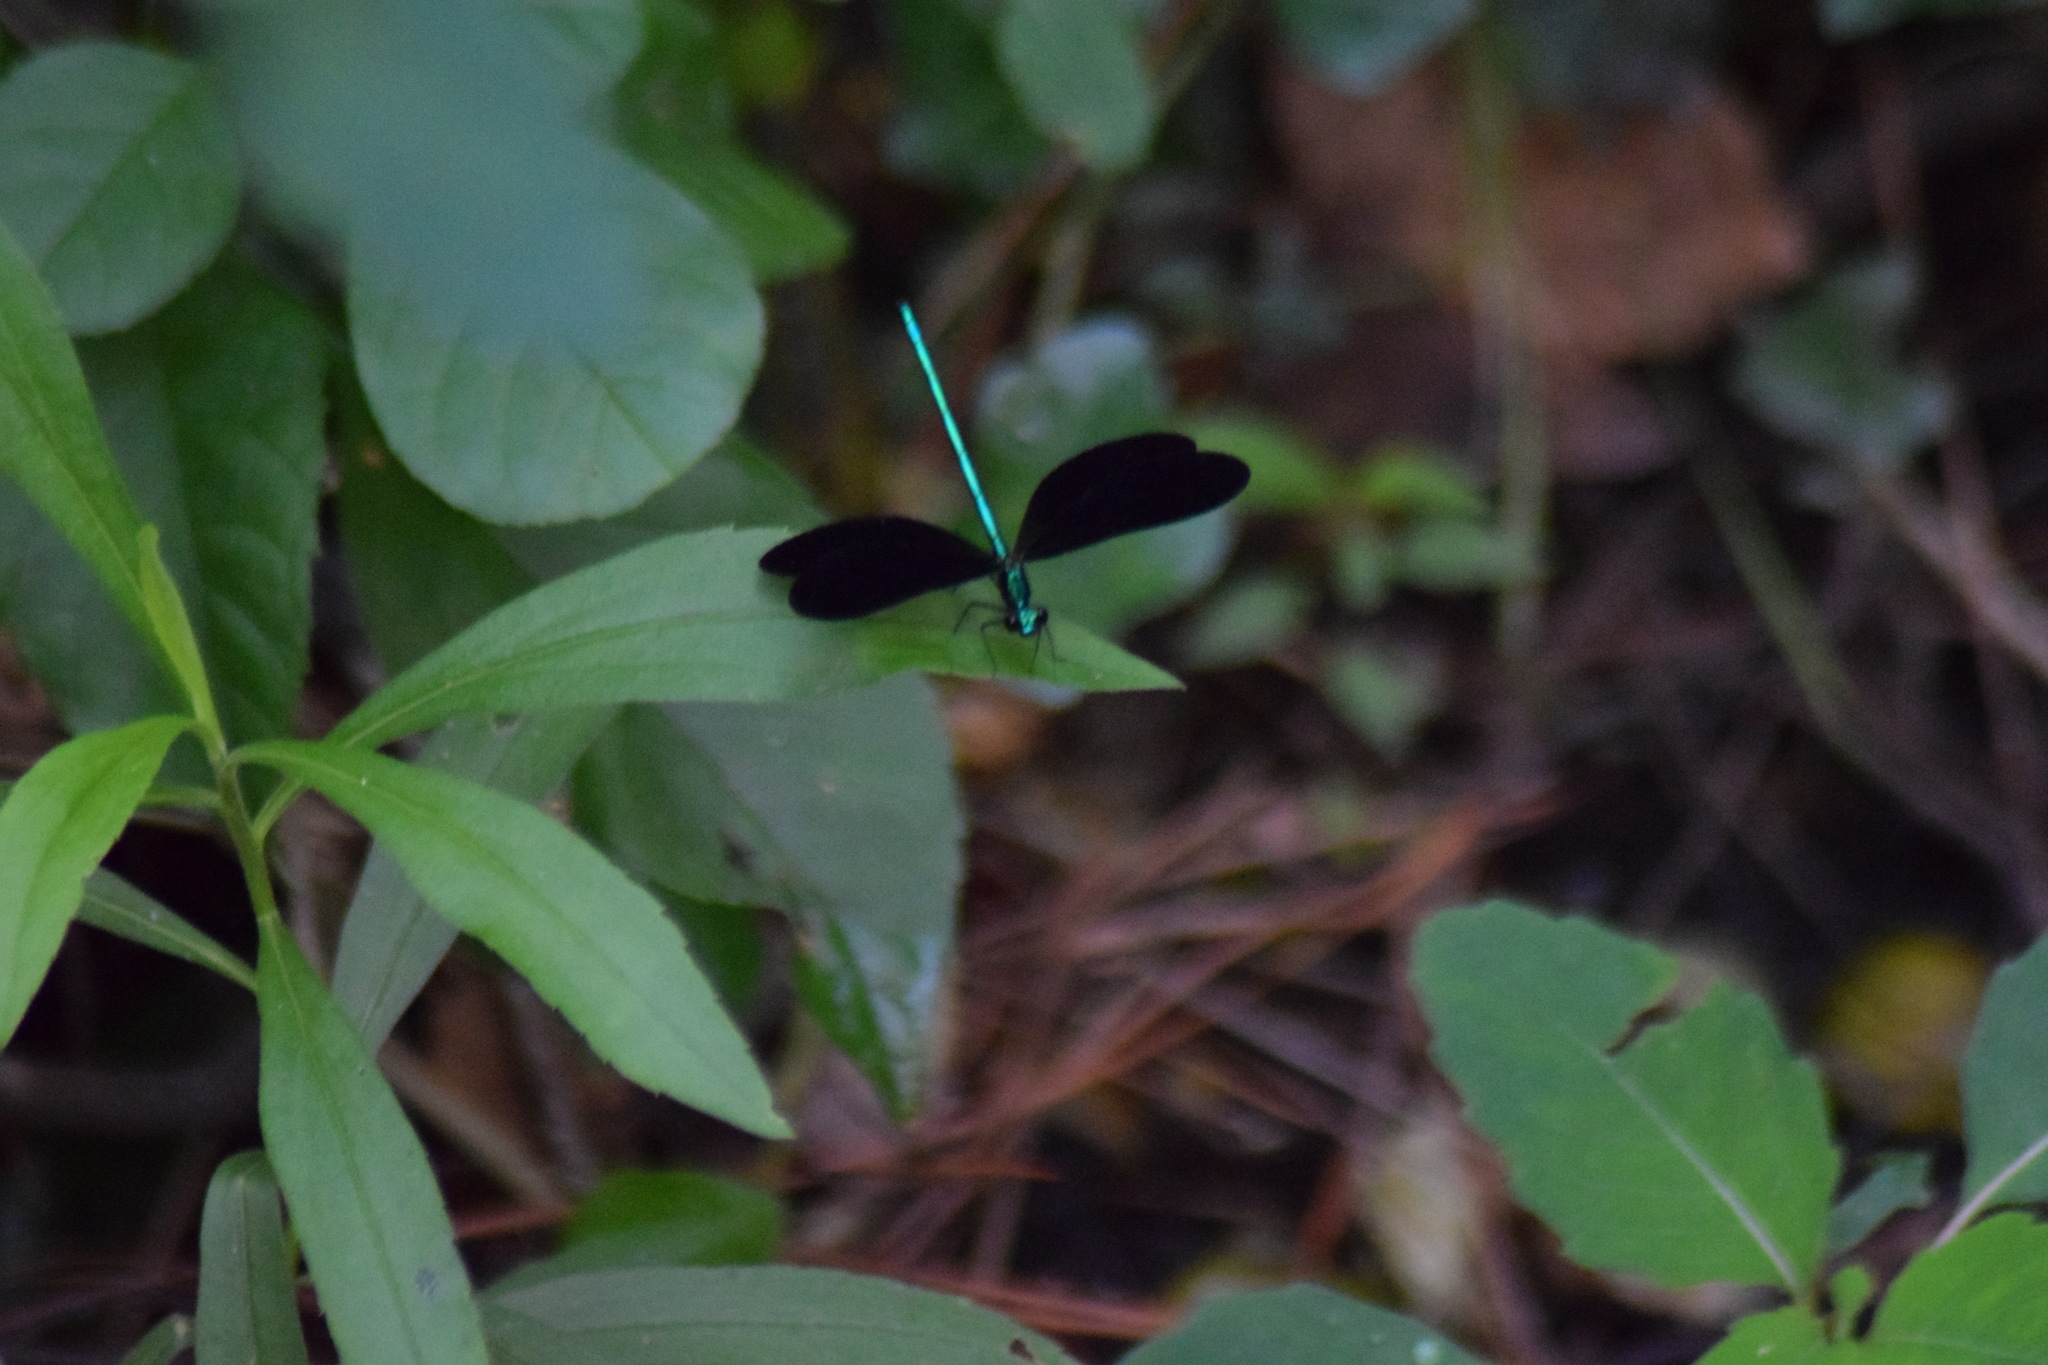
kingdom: Animalia
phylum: Arthropoda
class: Insecta
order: Odonata
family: Calopterygidae
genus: Calopteryx
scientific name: Calopteryx maculata
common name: Ebony jewelwing
